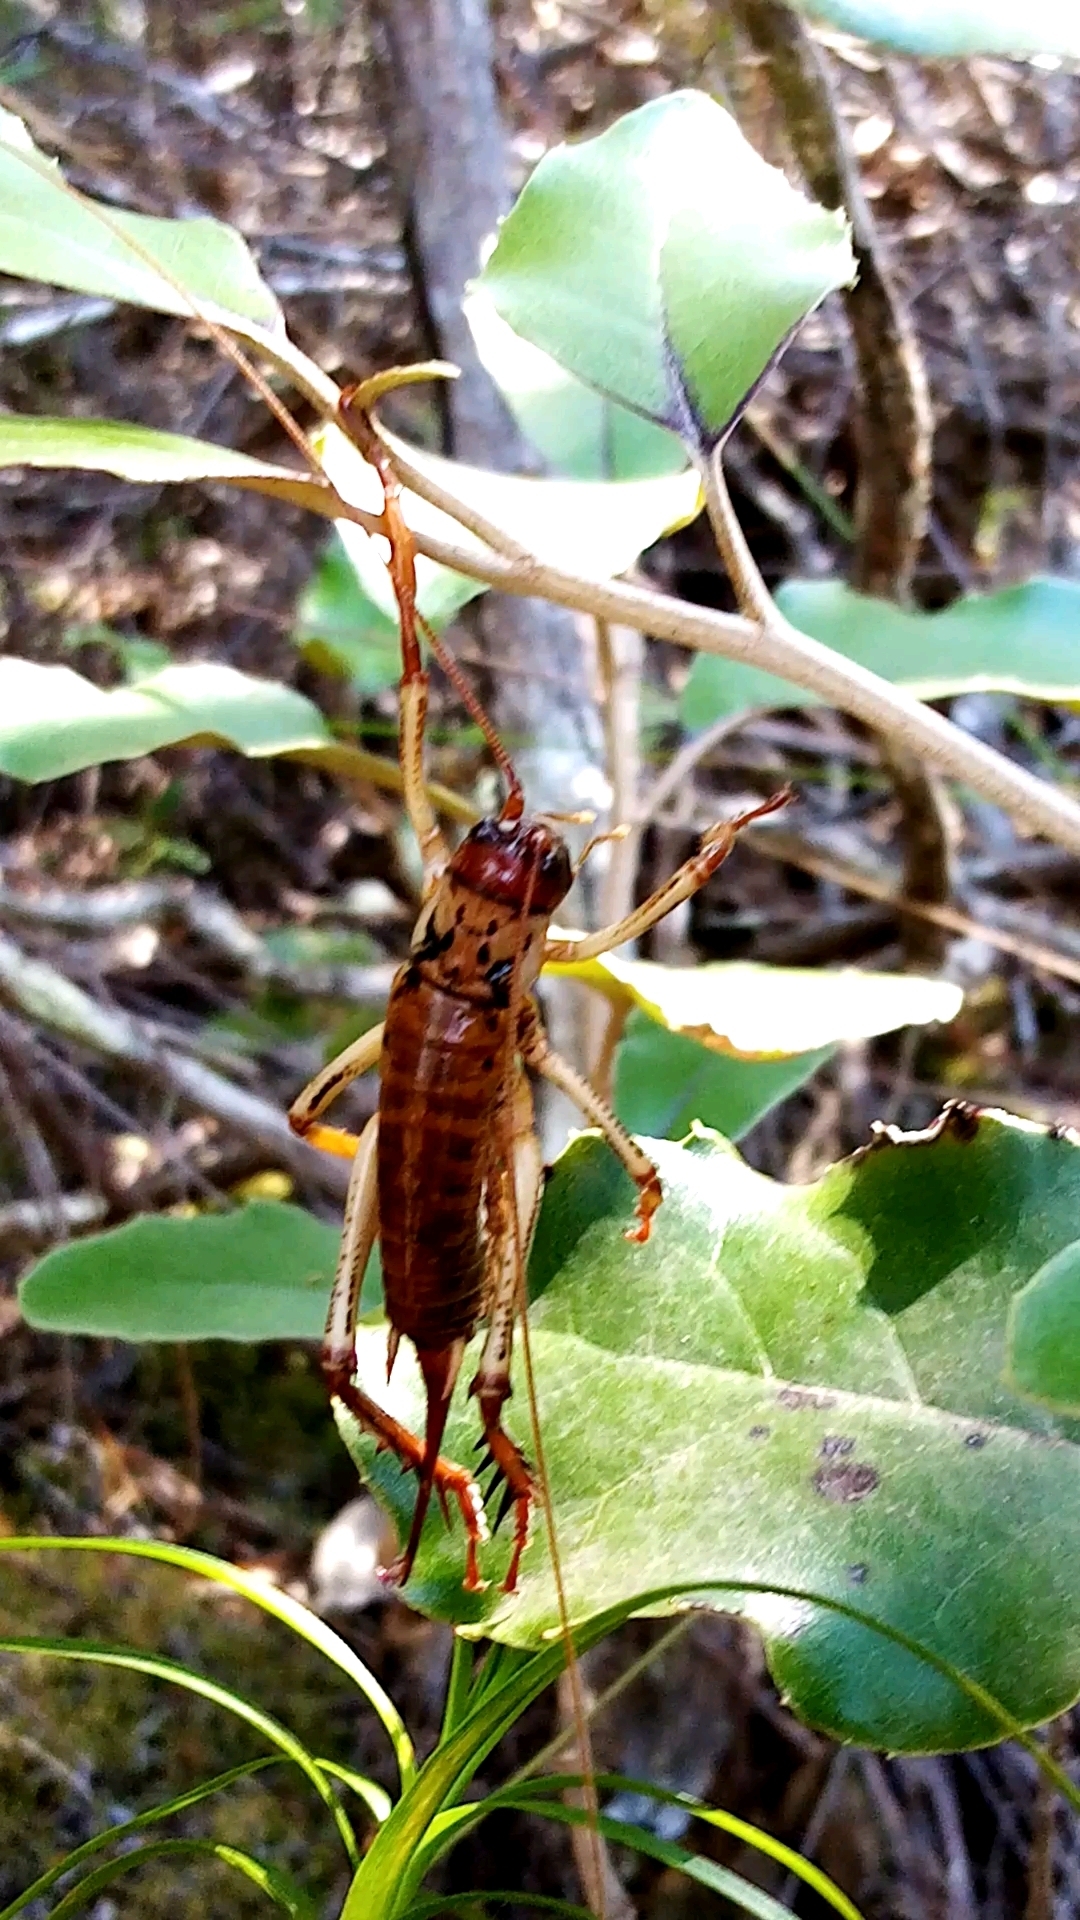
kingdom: Animalia
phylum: Arthropoda
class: Insecta
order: Orthoptera
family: Anostostomatidae
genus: Hemideina
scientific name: Hemideina thoracica
